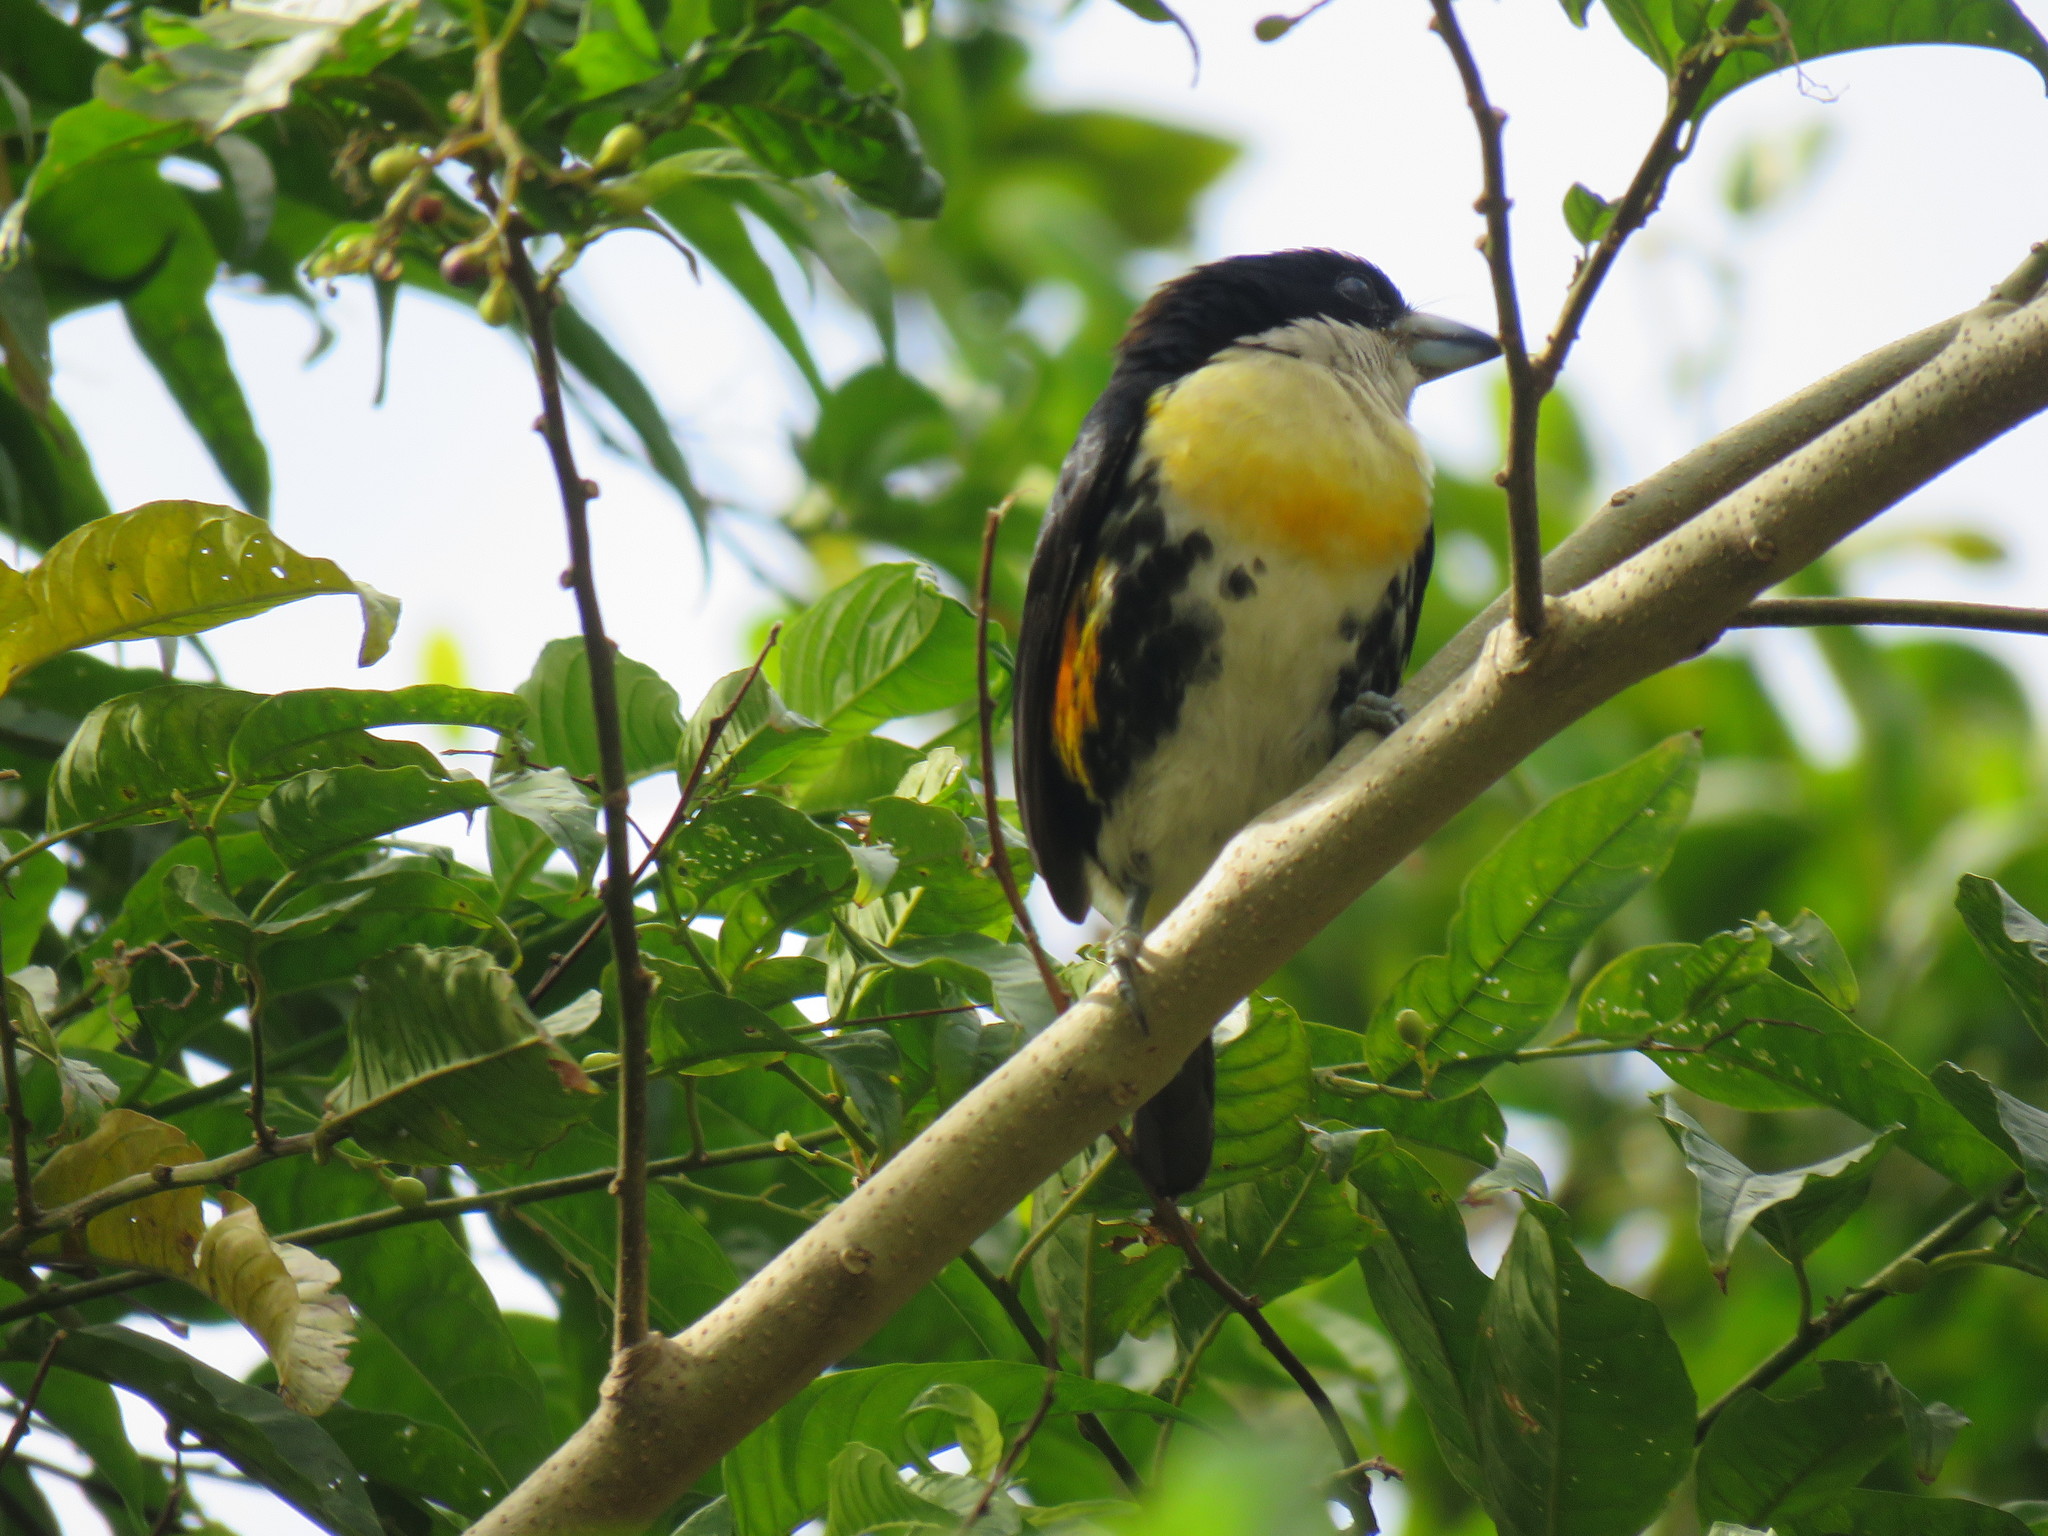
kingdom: Animalia
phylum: Chordata
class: Aves
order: Piciformes
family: Capitonidae
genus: Capito
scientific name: Capito maculicoronatus
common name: Spot-crowned barbet
